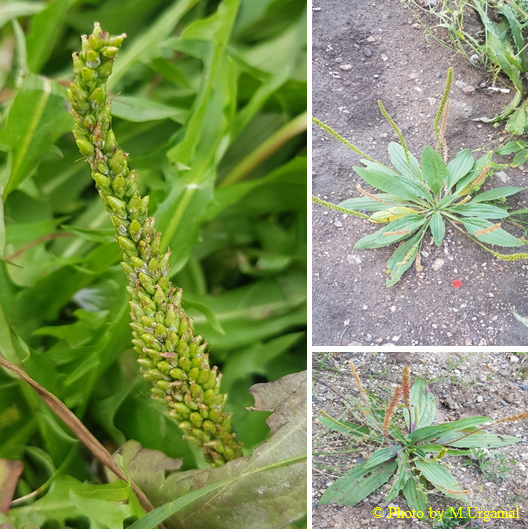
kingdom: Plantae
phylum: Tracheophyta
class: Magnoliopsida
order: Lamiales
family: Plantaginaceae
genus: Plantago
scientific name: Plantago depressa
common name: Depressed plantain
